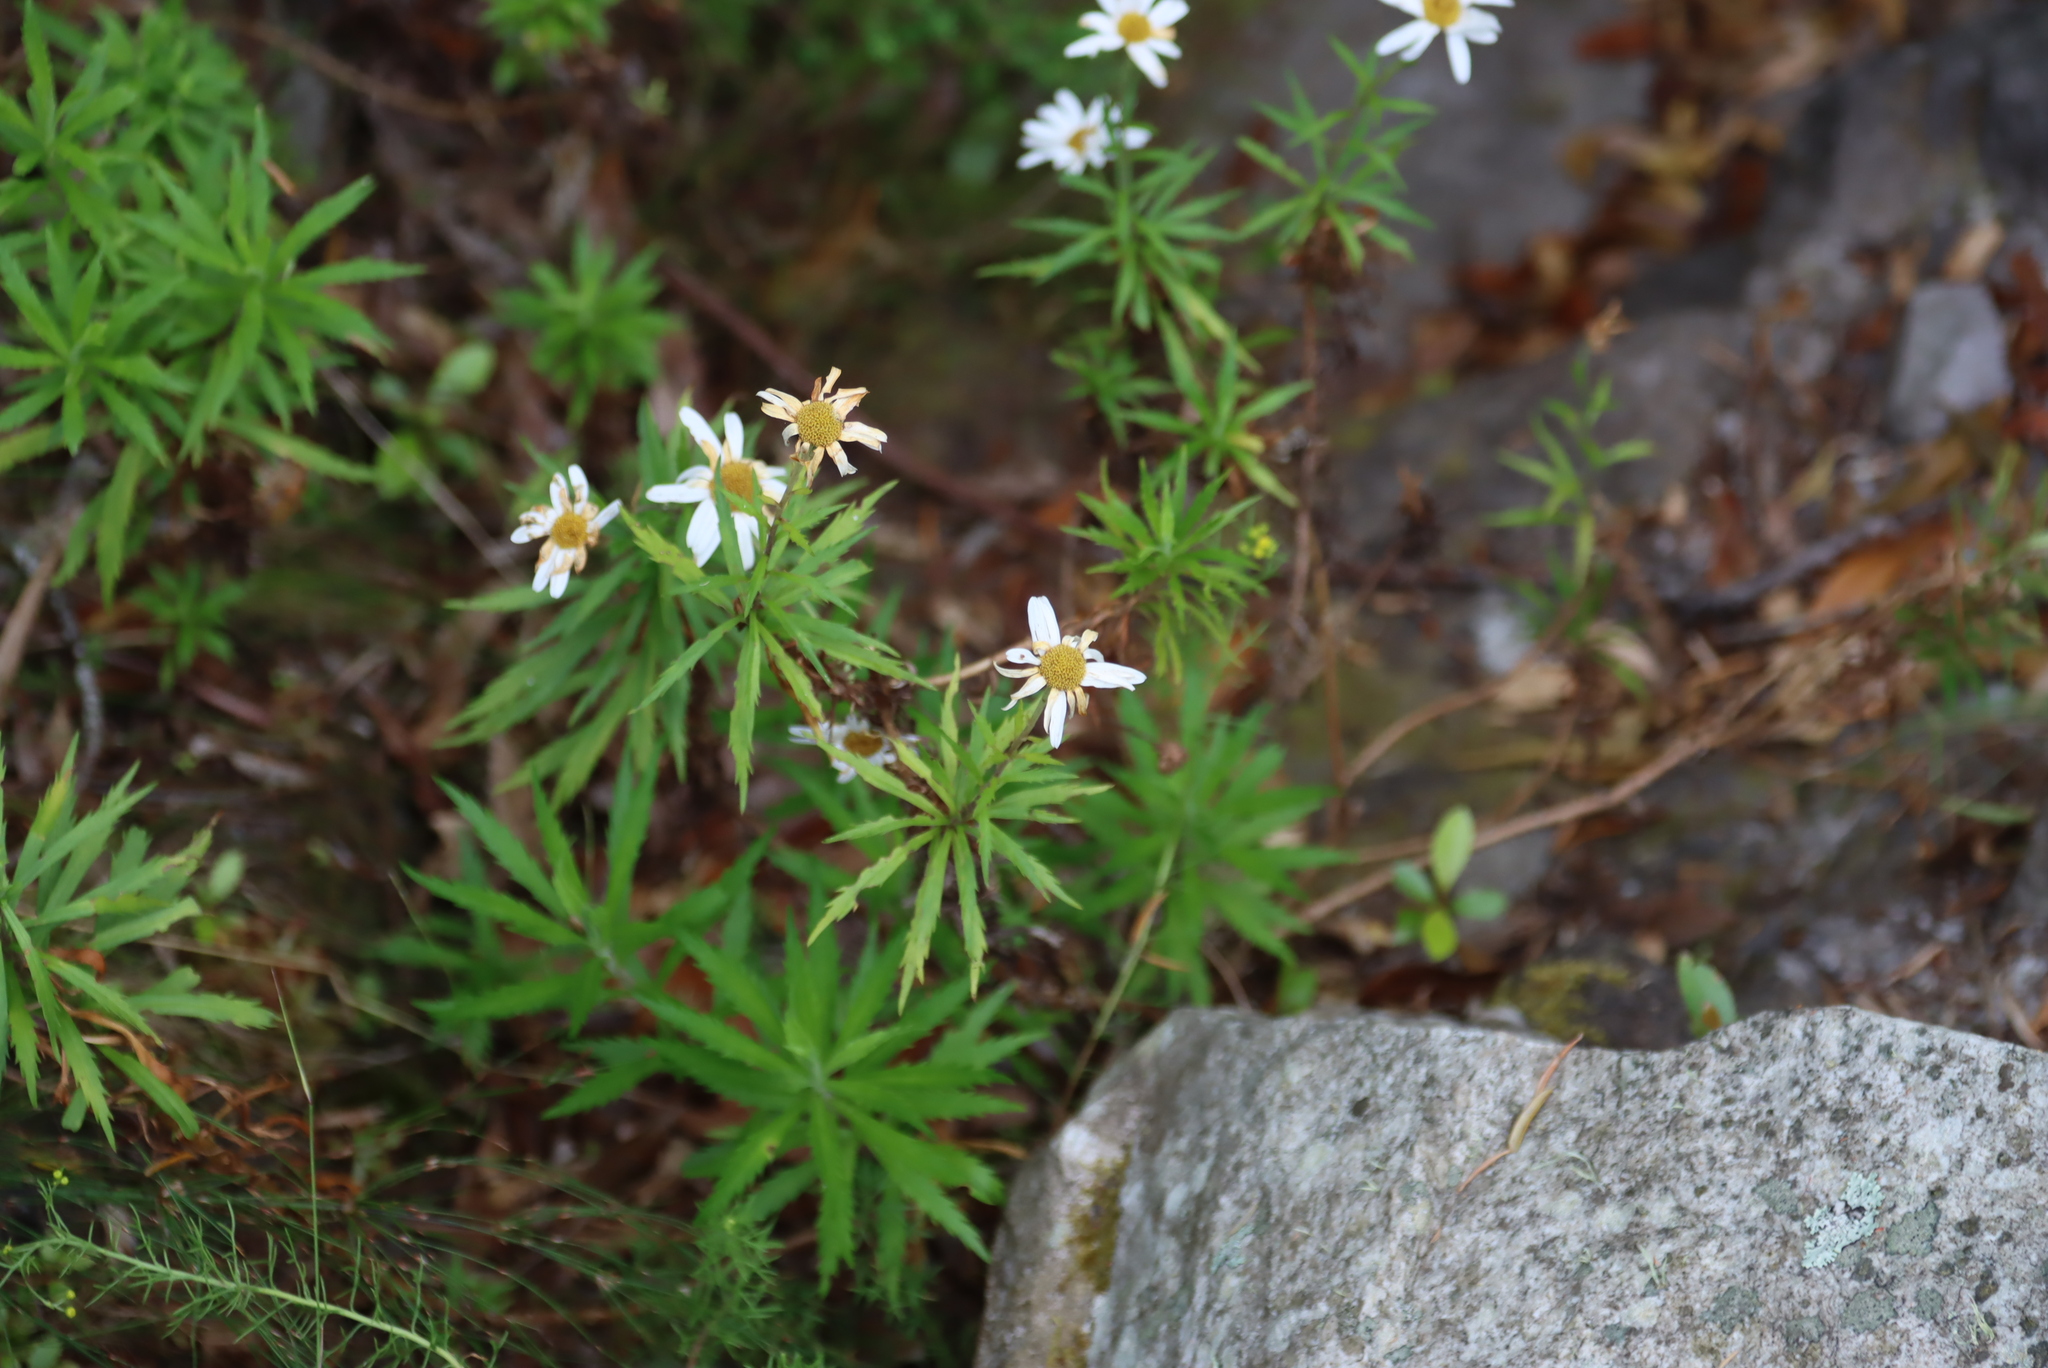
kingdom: Plantae
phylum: Tracheophyta
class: Magnoliopsida
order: Asterales
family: Asteraceae
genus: Osmitopsis
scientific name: Osmitopsis osmitoides
